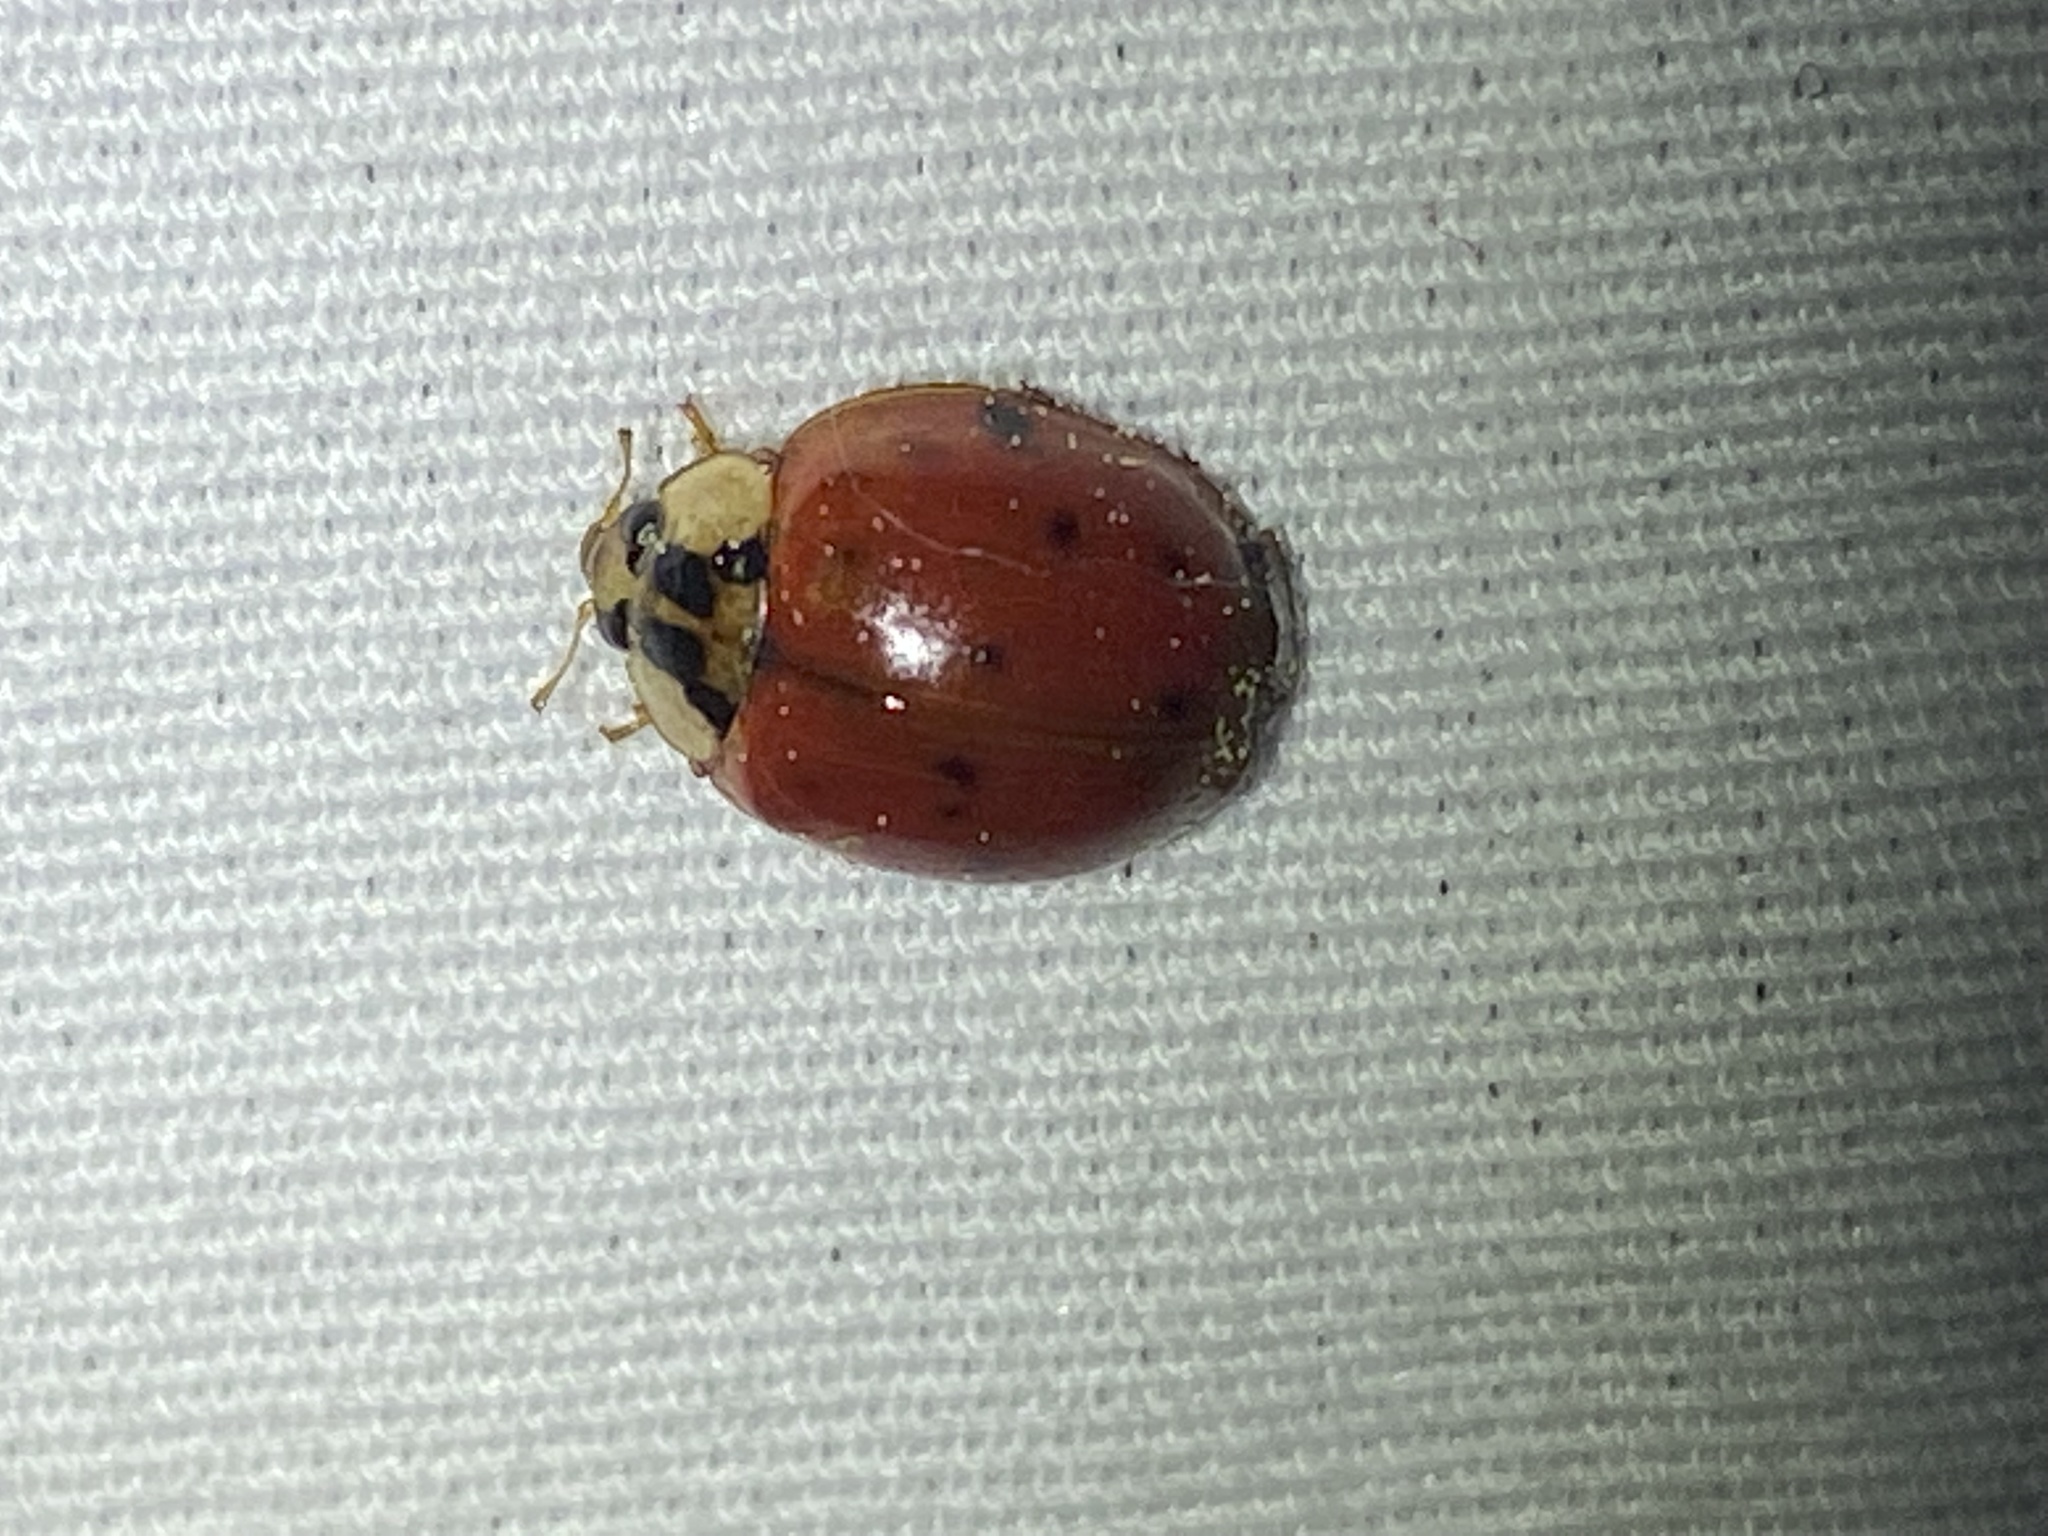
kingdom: Animalia
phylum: Arthropoda
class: Insecta
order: Coleoptera
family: Coccinellidae
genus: Harmonia
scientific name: Harmonia axyridis
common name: Harlequin ladybird
